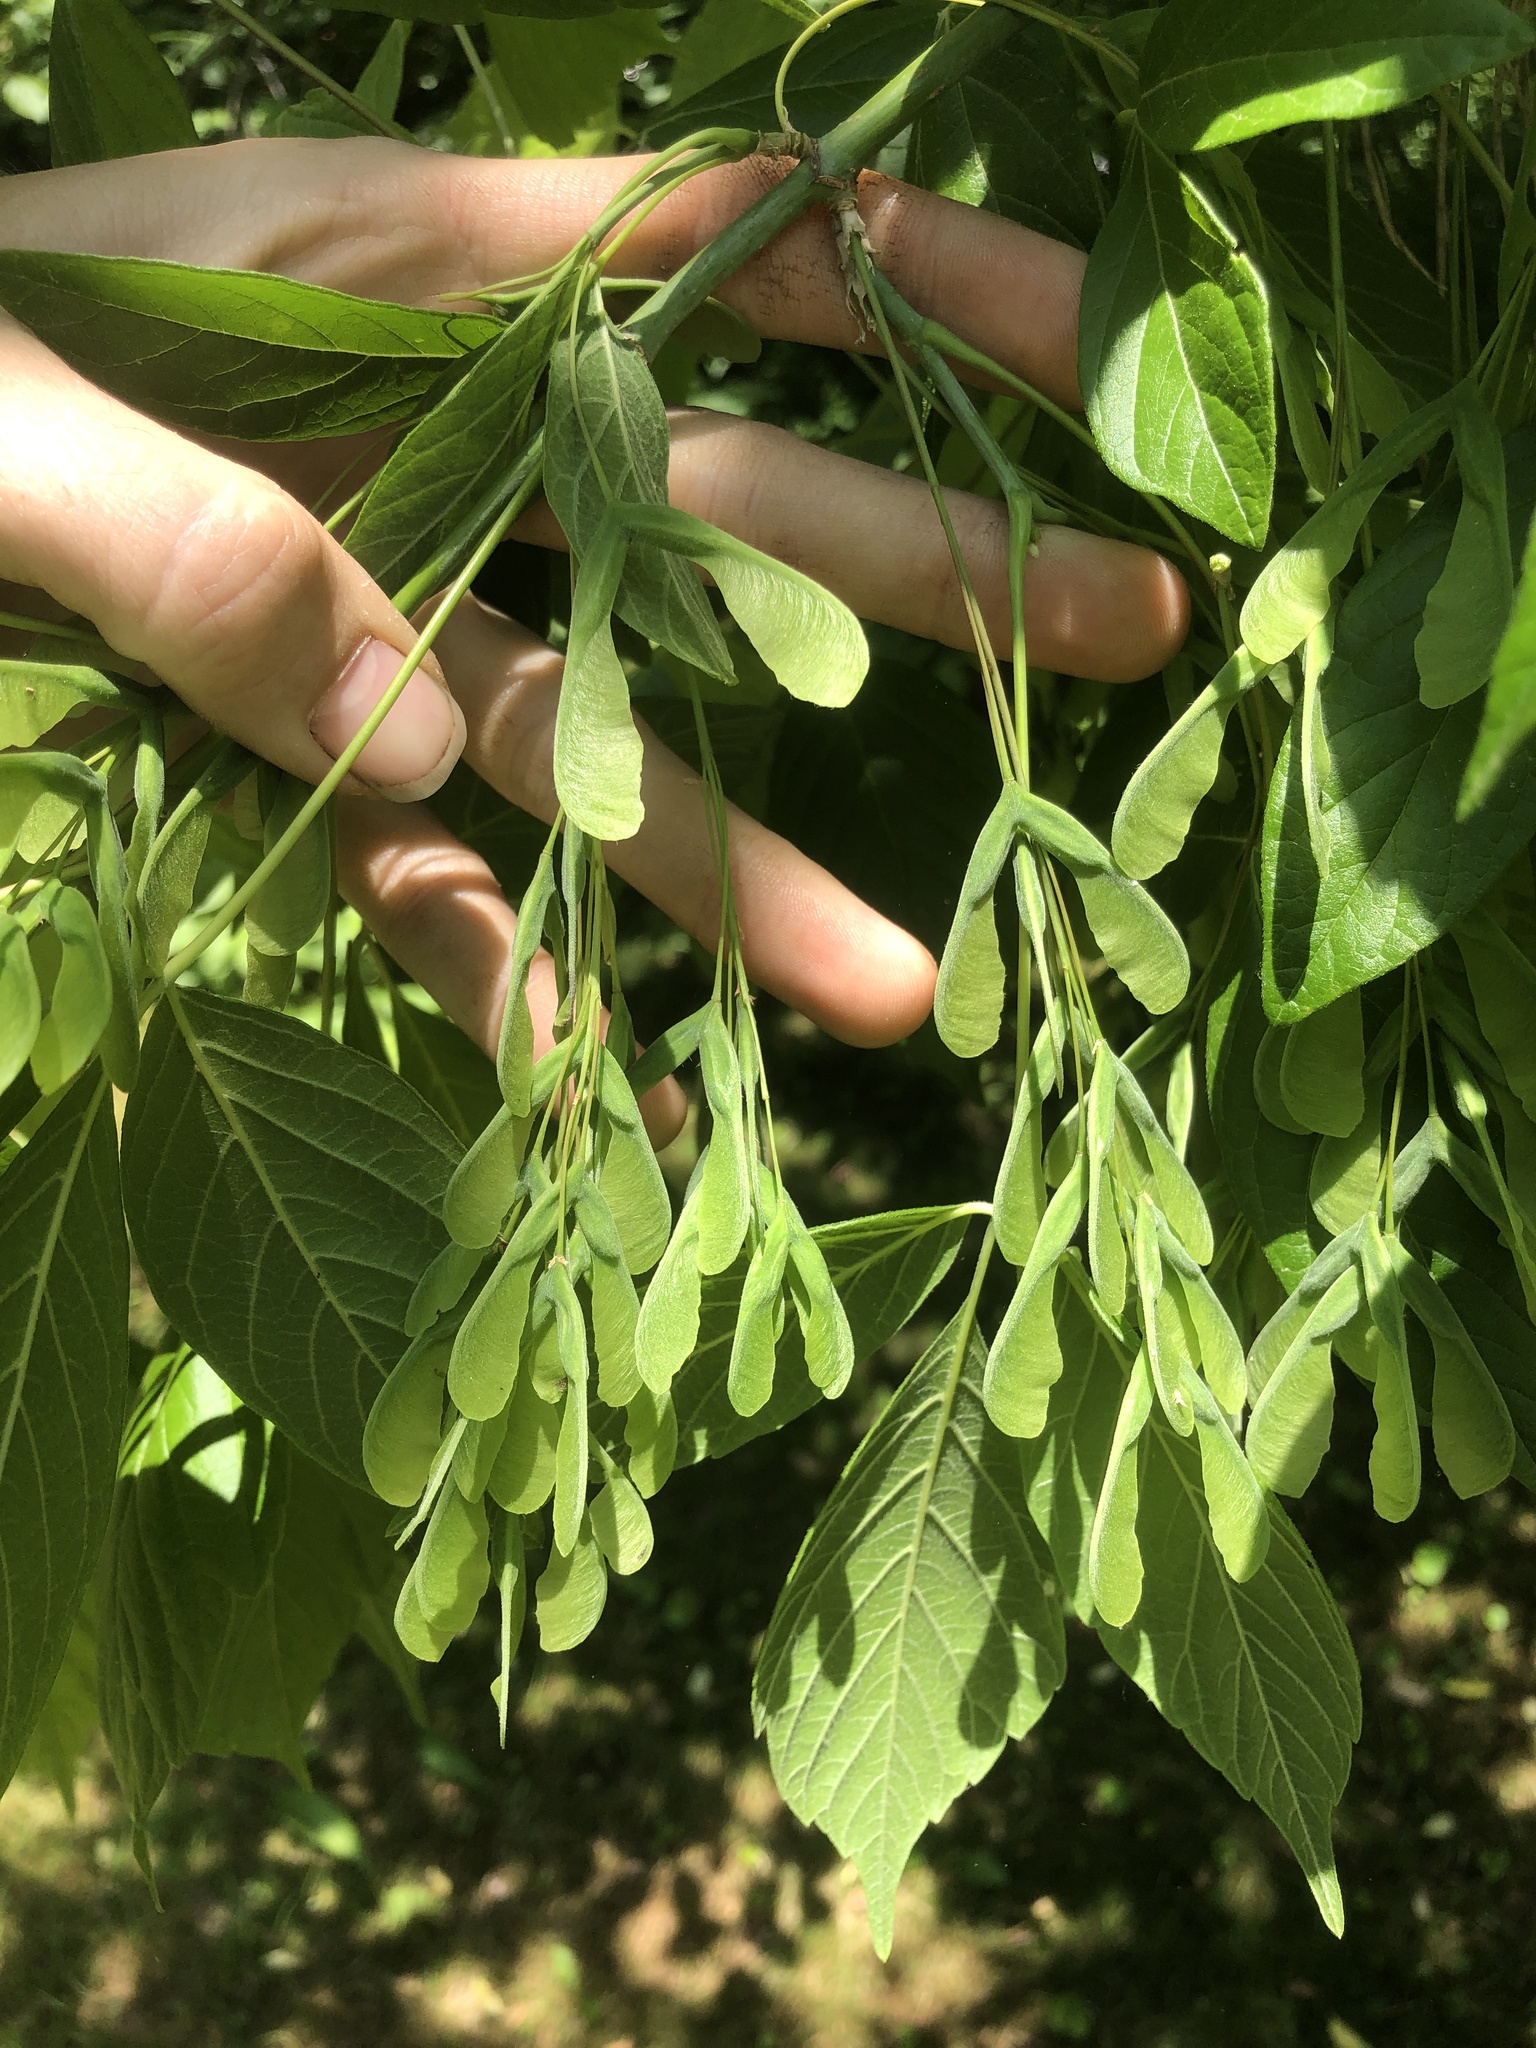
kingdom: Plantae
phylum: Tracheophyta
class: Magnoliopsida
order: Sapindales
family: Sapindaceae
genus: Acer
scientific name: Acer negundo
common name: Ashleaf maple
